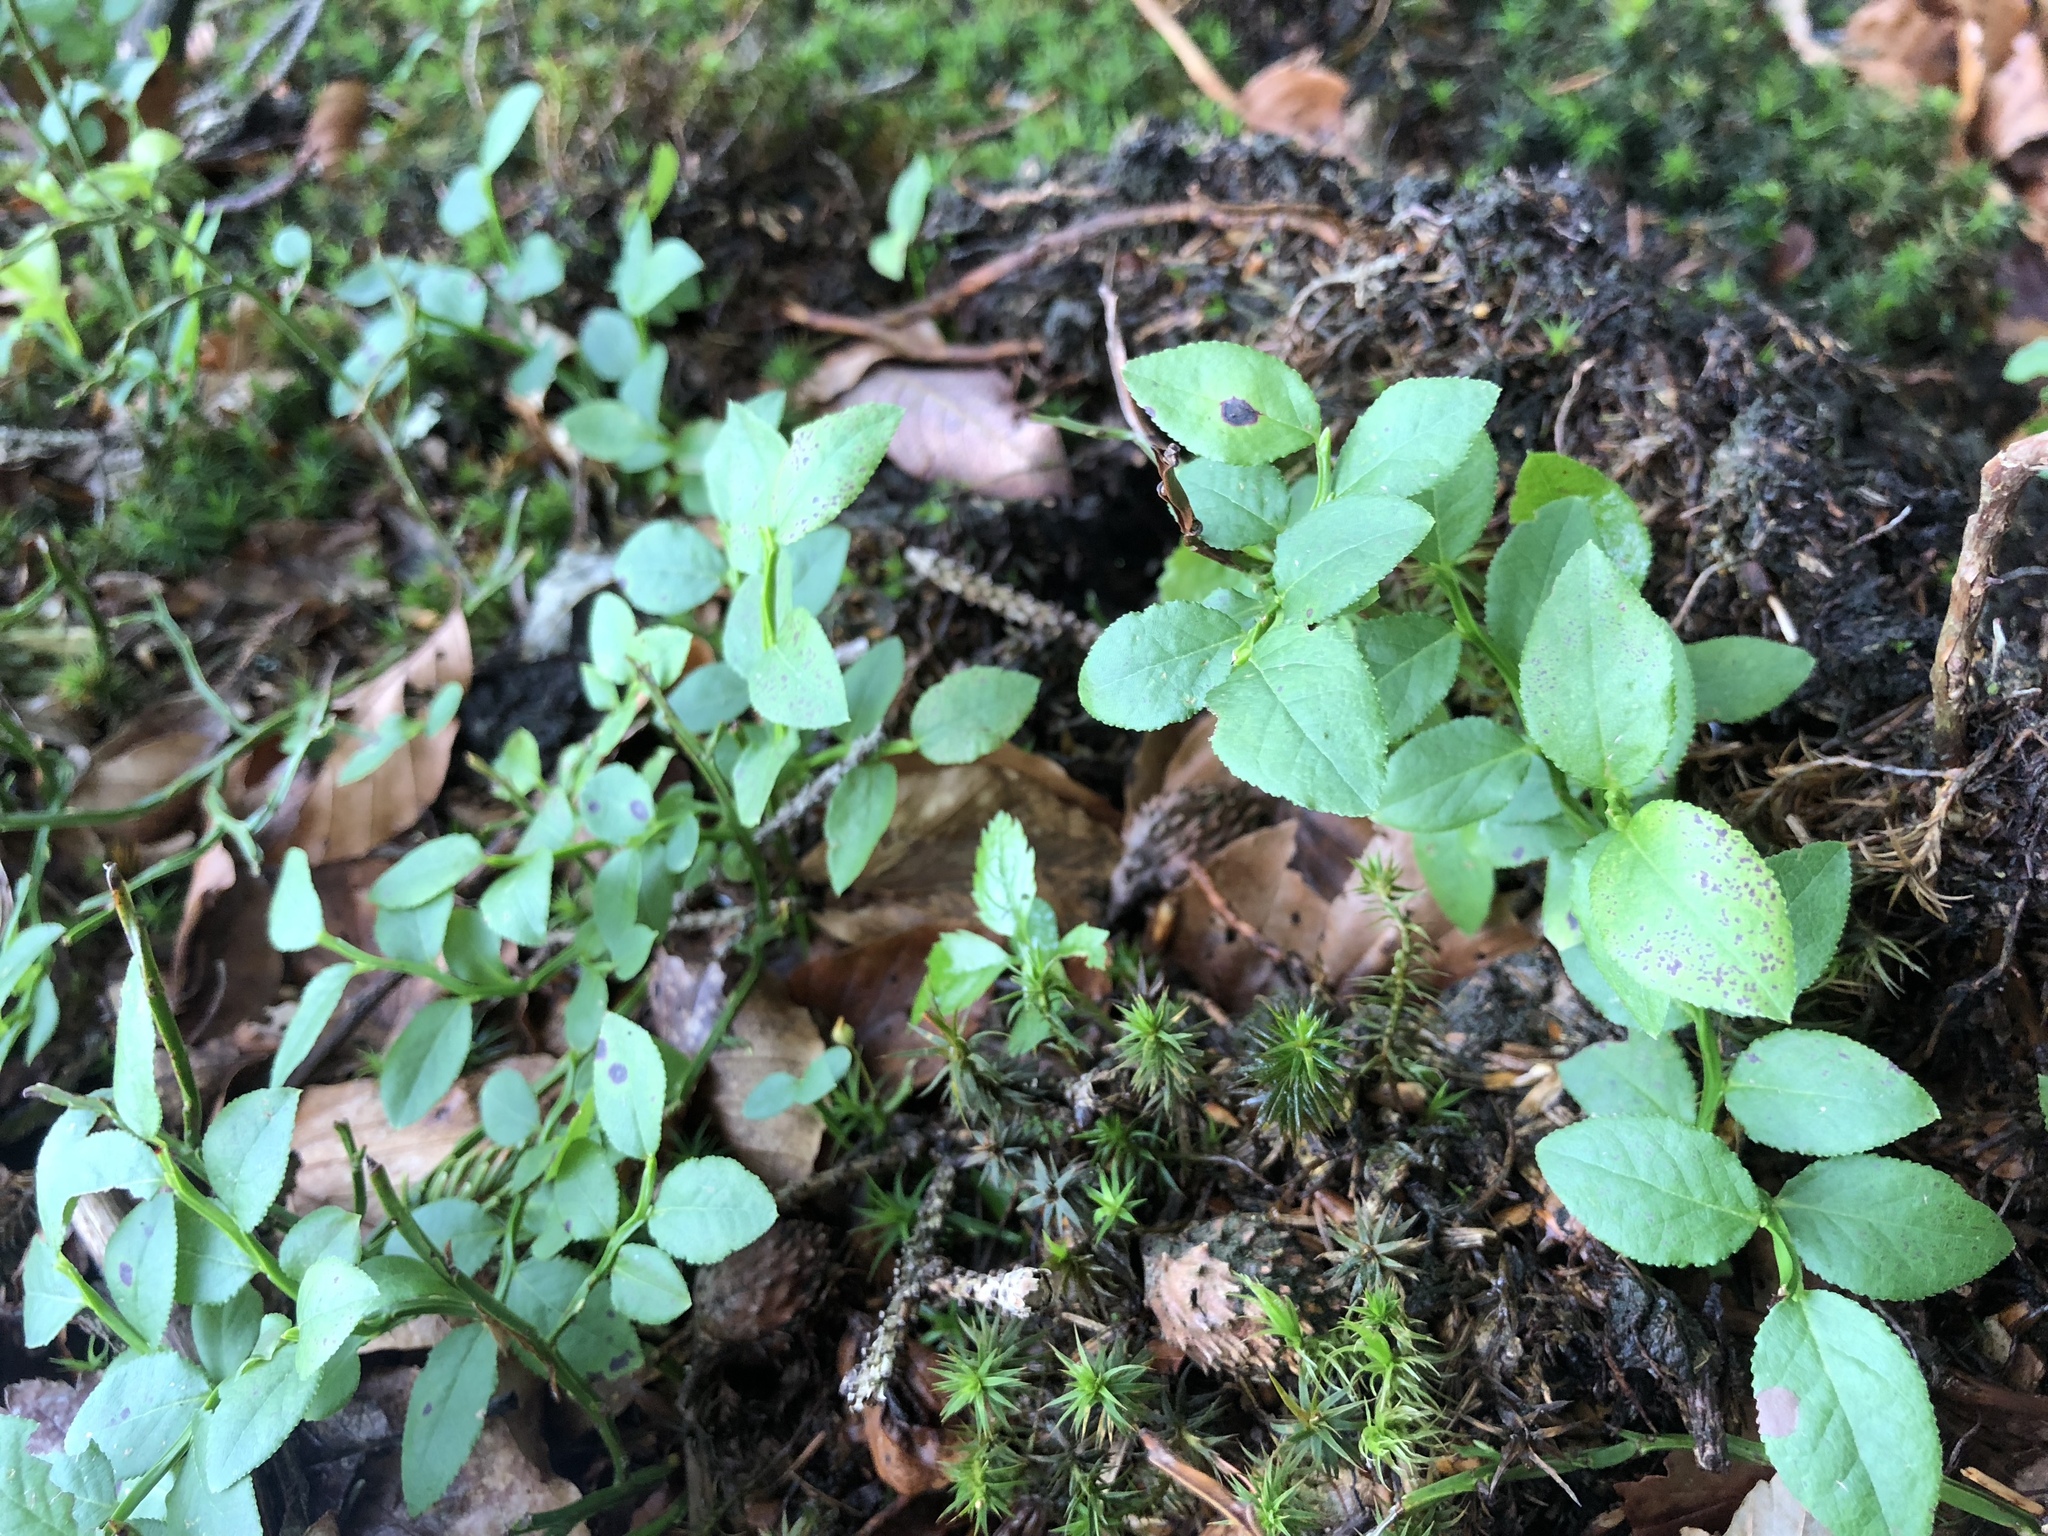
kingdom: Plantae
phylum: Tracheophyta
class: Magnoliopsida
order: Ericales
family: Ericaceae
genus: Vaccinium
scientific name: Vaccinium myrtillus
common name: Bilberry
